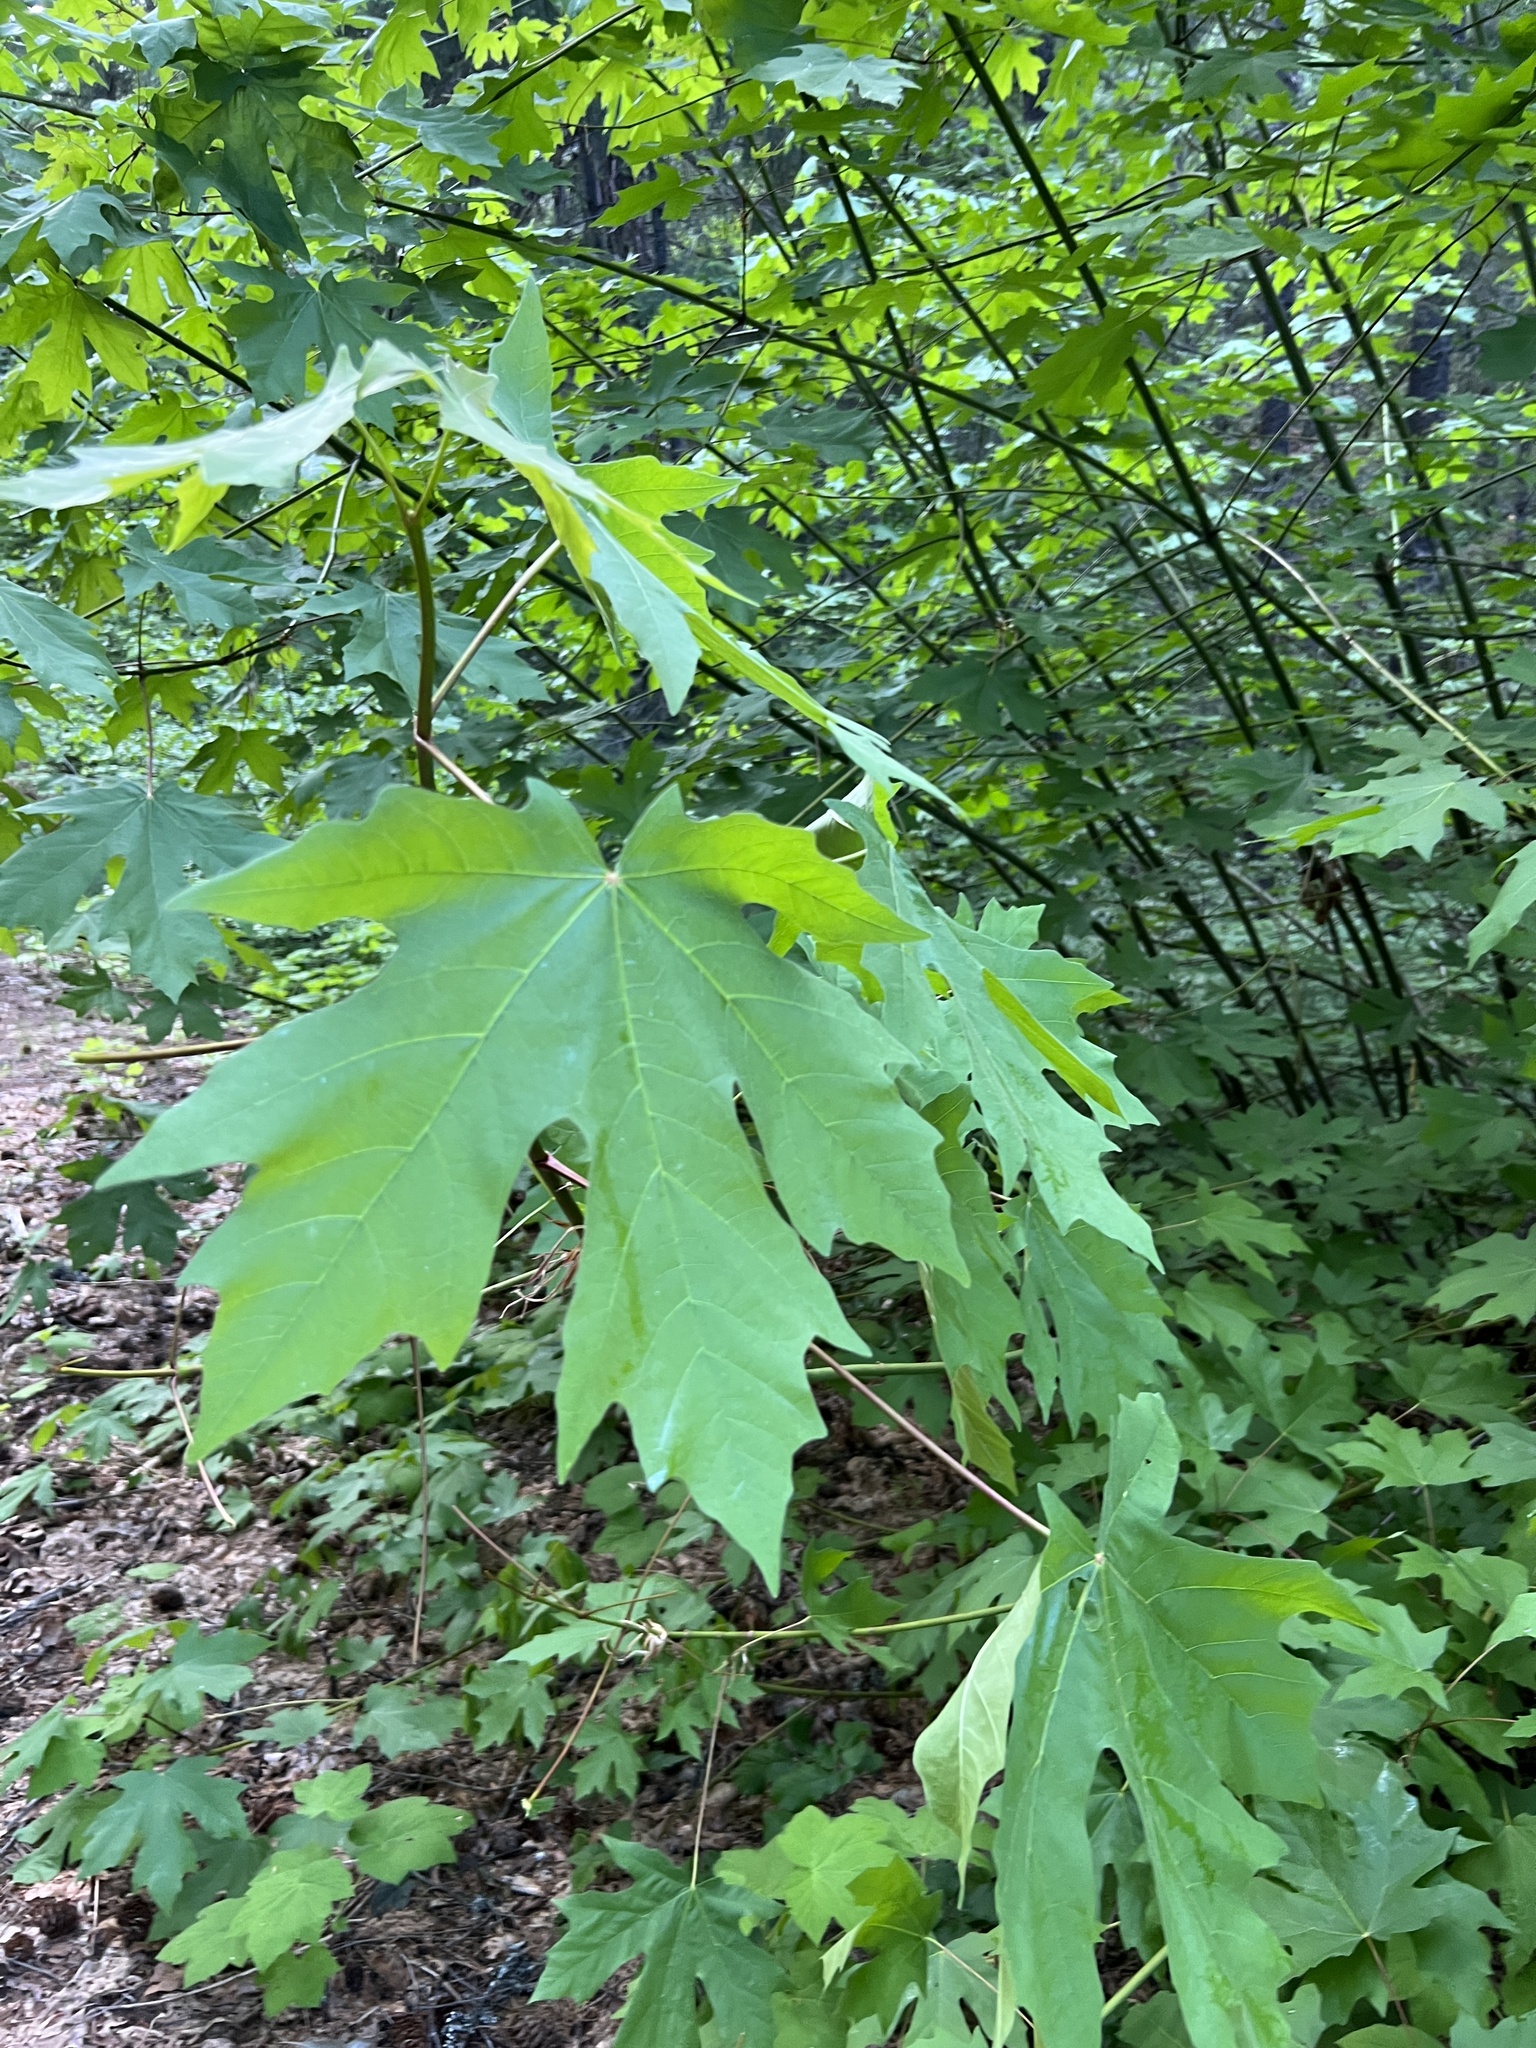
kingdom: Plantae
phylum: Tracheophyta
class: Magnoliopsida
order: Sapindales
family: Sapindaceae
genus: Acer
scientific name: Acer macrophyllum
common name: Oregon maple
